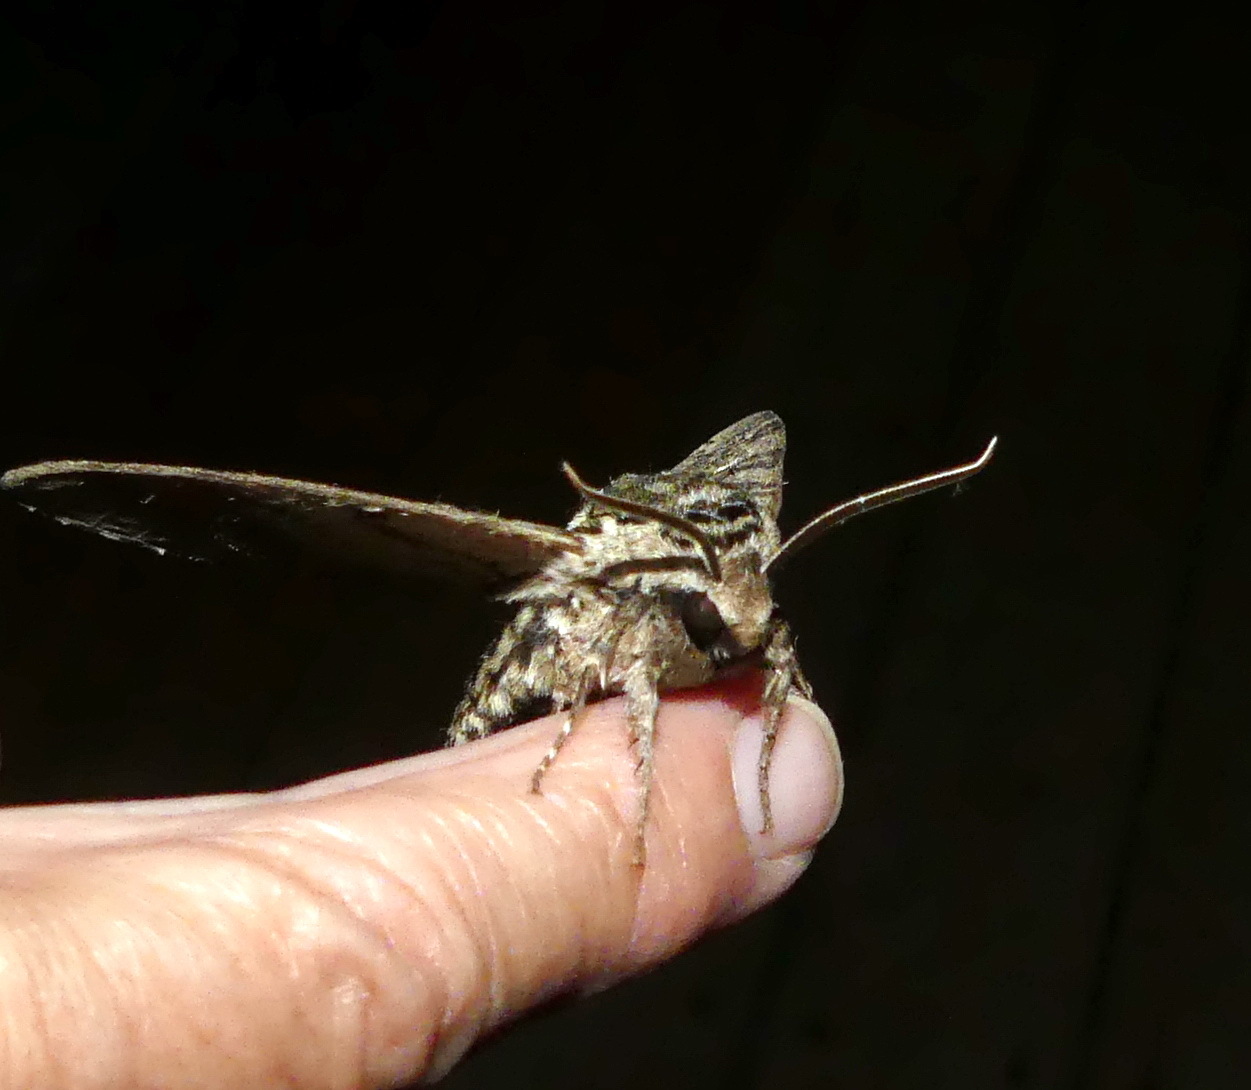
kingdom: Animalia
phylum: Arthropoda
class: Insecta
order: Lepidoptera
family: Sphingidae
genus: Ceratomia
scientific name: Ceratomia undulosa
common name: Waved sphinx
